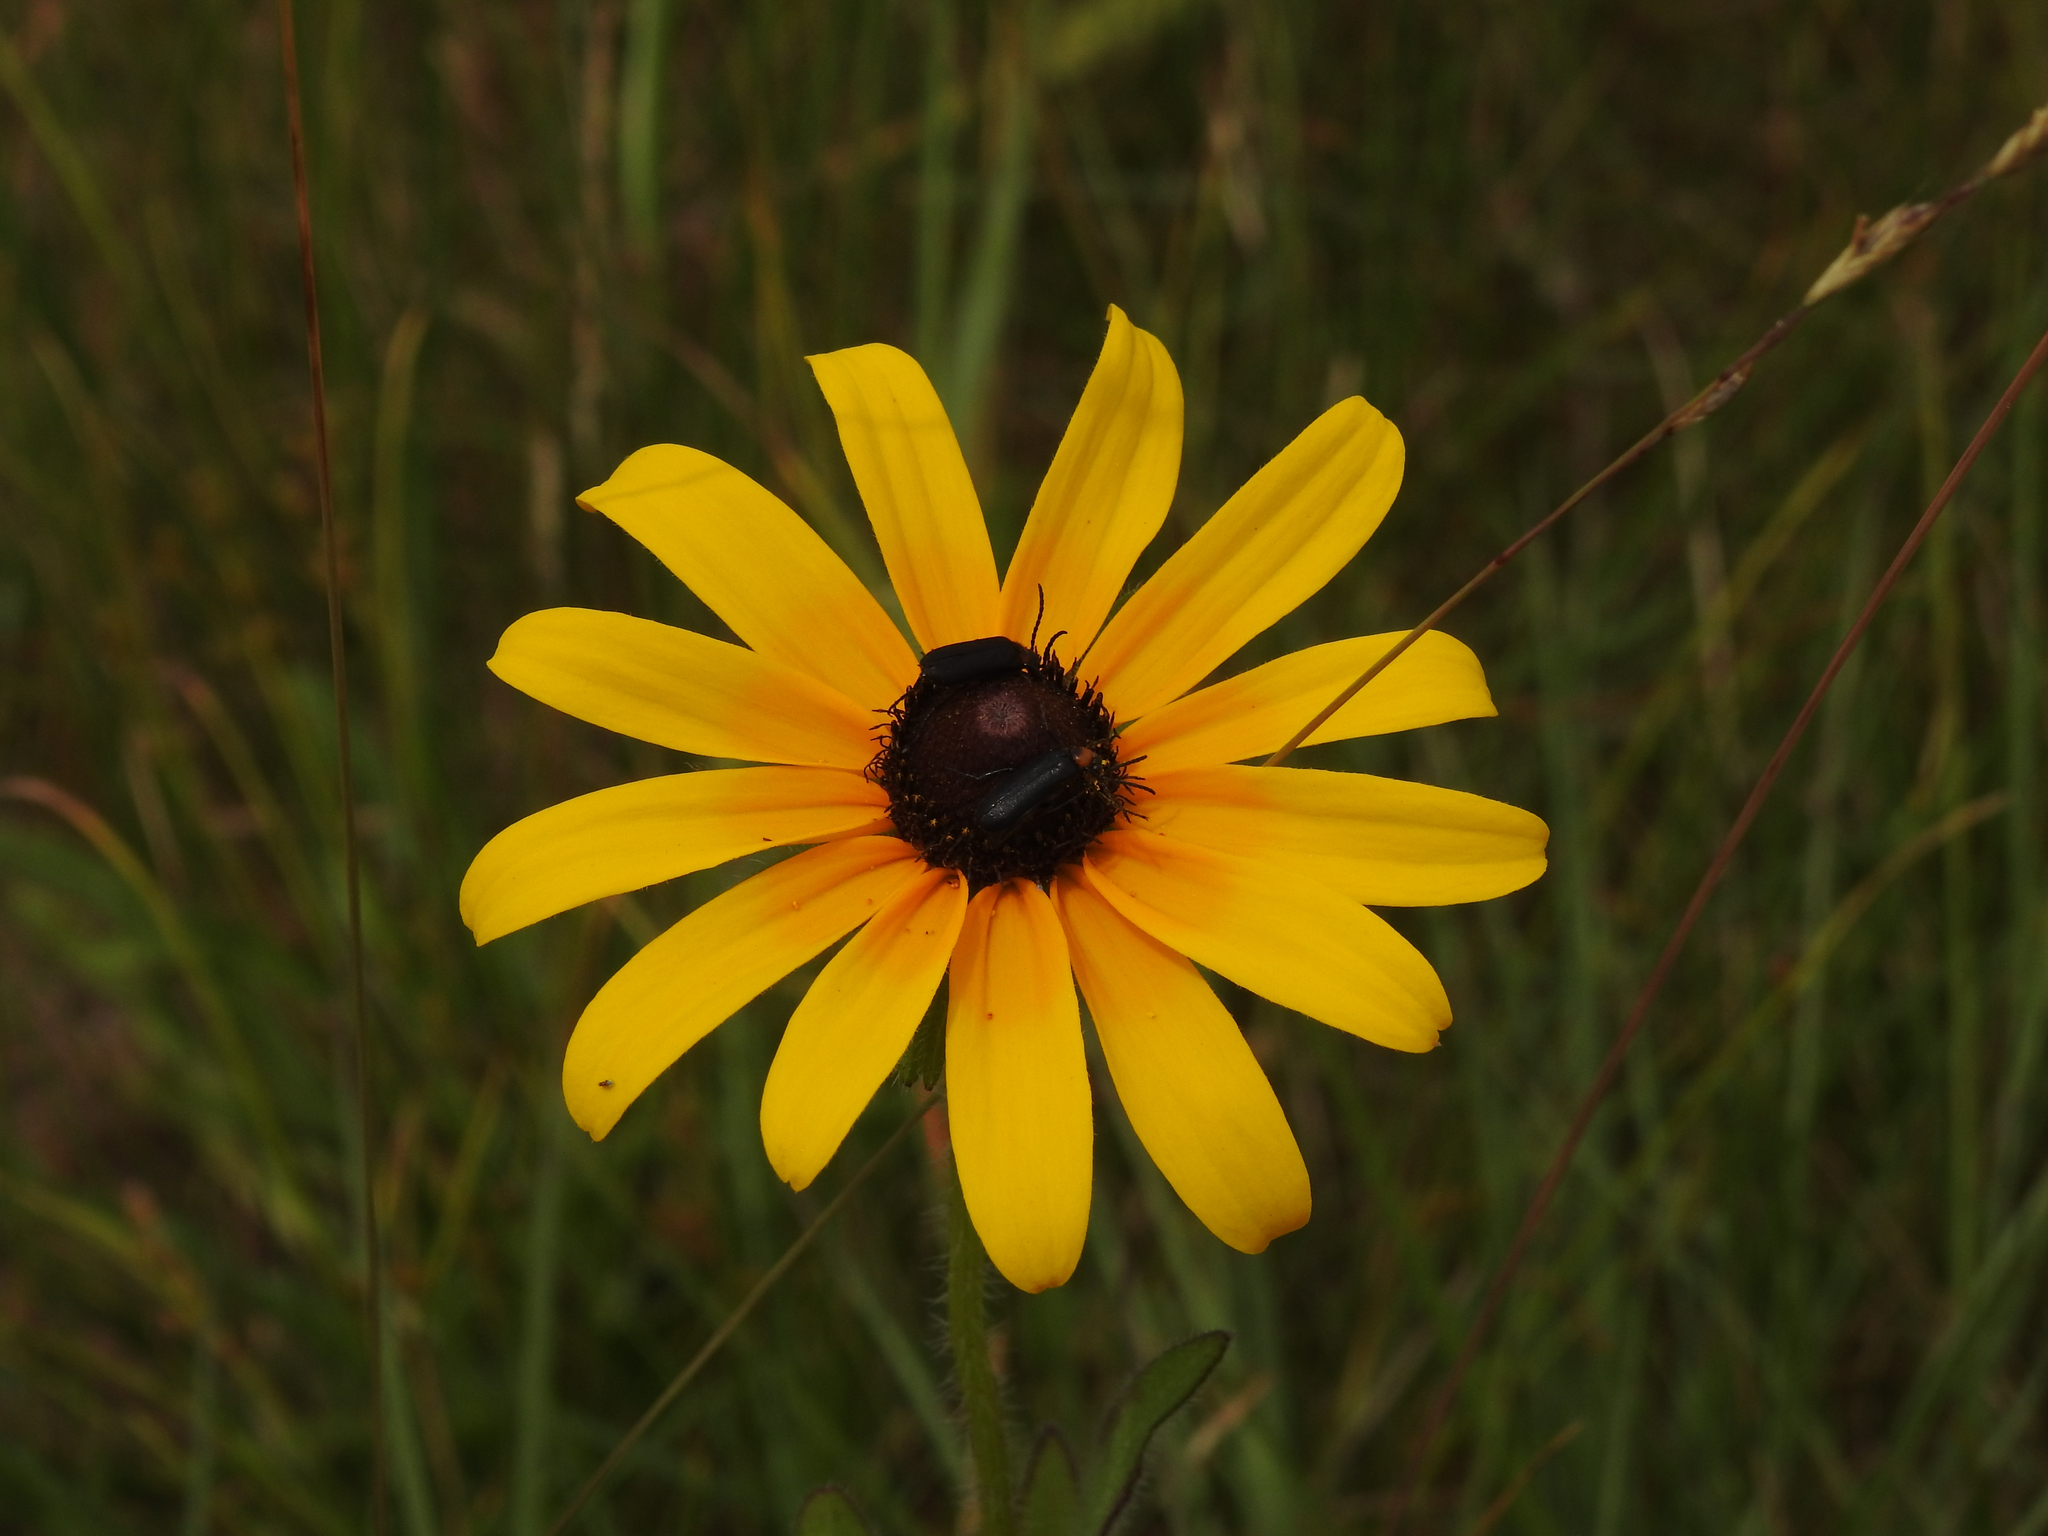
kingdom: Plantae
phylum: Tracheophyta
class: Magnoliopsida
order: Asterales
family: Asteraceae
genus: Rudbeckia
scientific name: Rudbeckia hirta
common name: Black-eyed-susan
